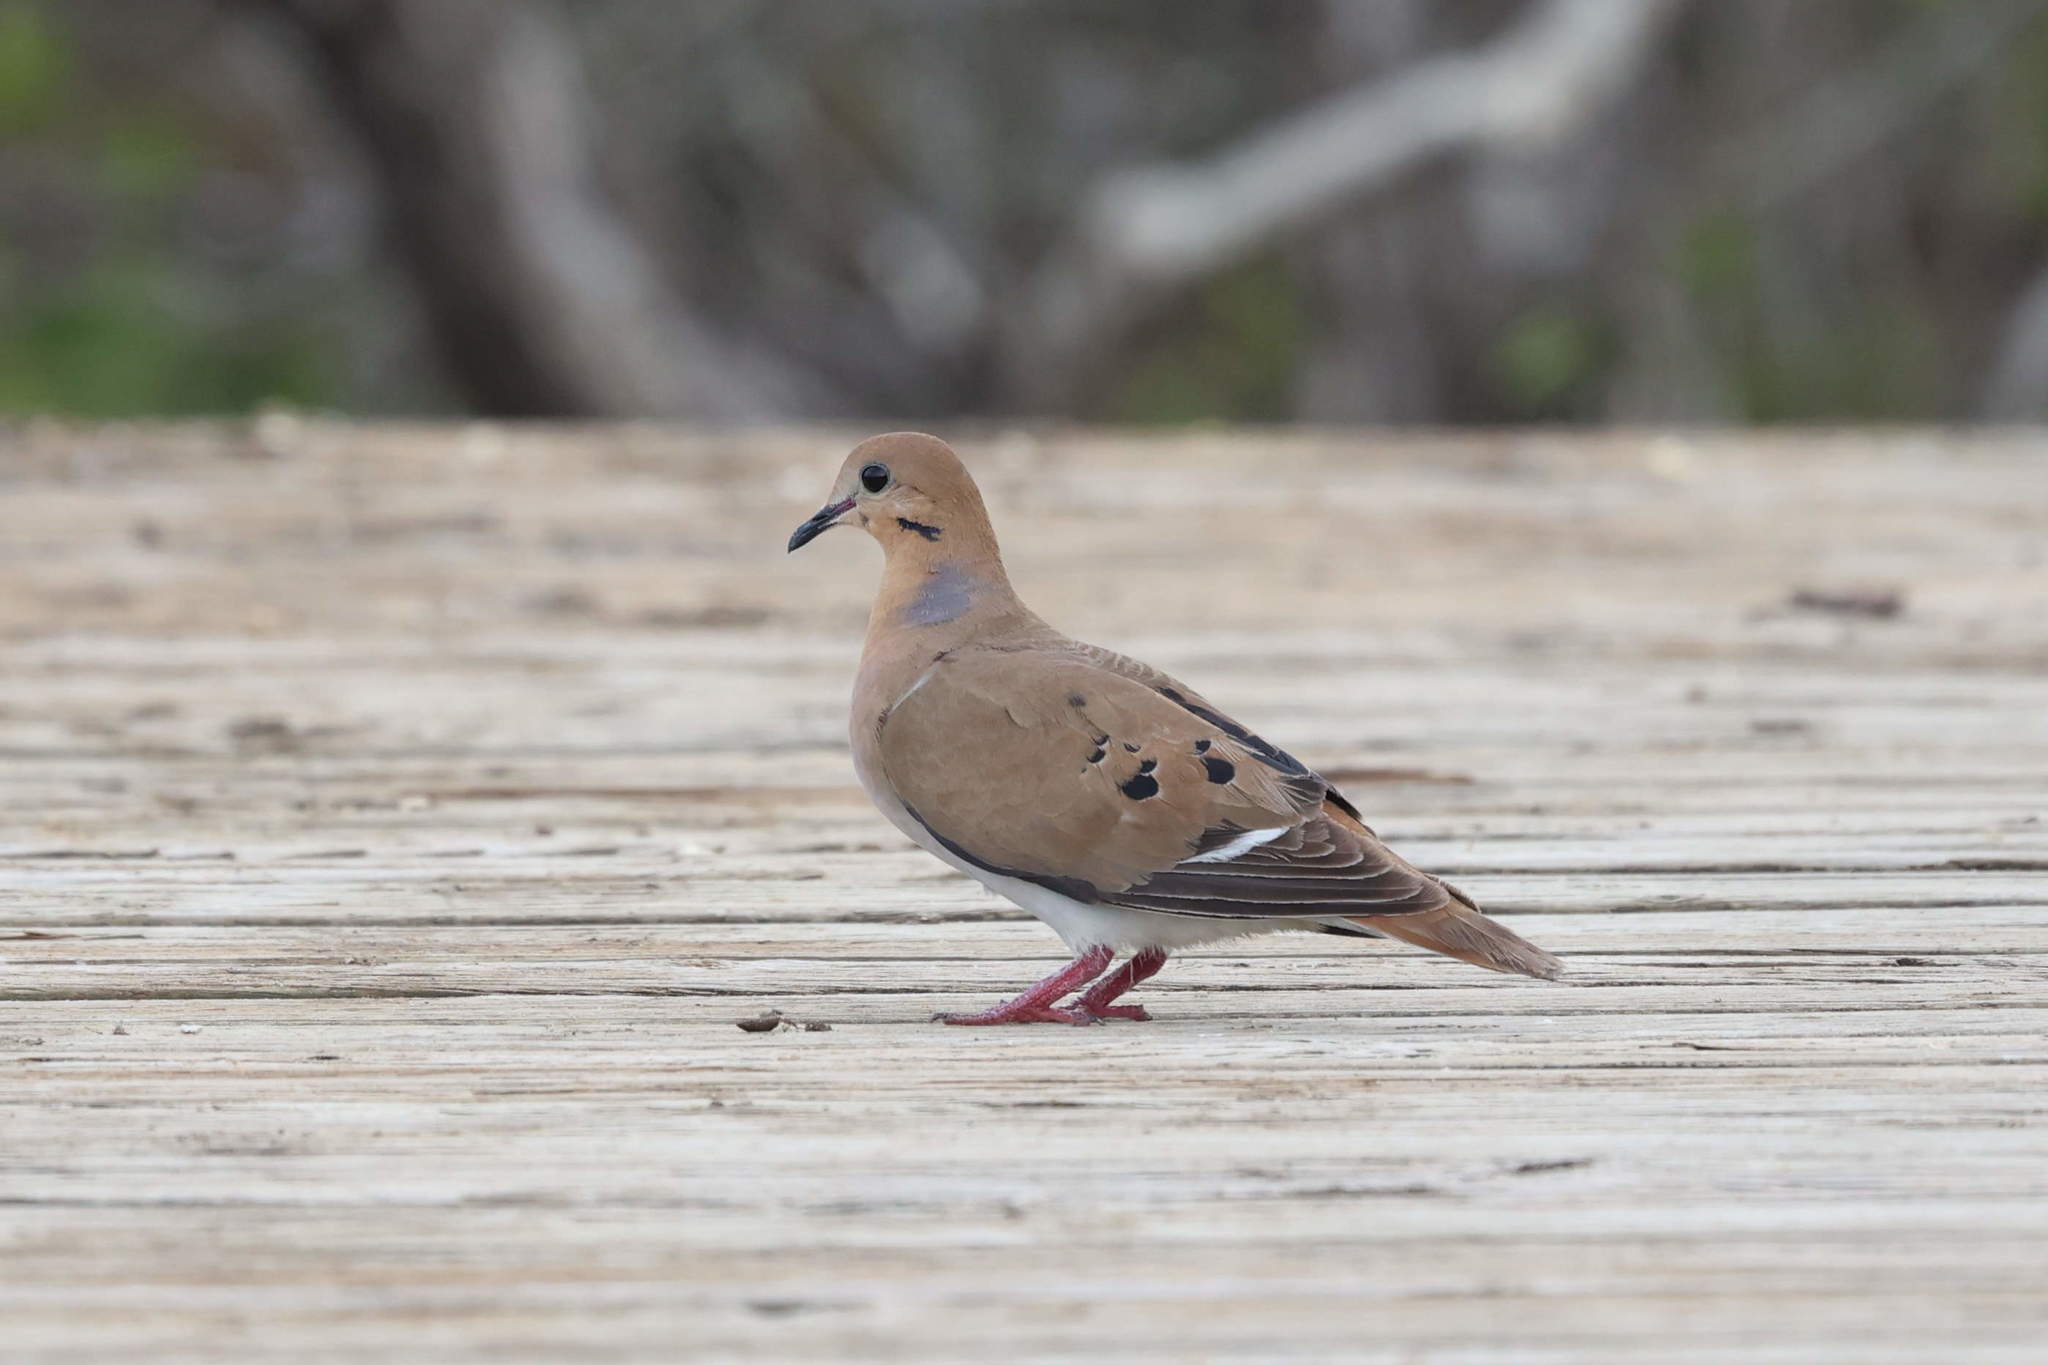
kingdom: Animalia
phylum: Chordata
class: Aves
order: Columbiformes
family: Columbidae
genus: Zenaida
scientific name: Zenaida aurita
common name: Zenaida dove
